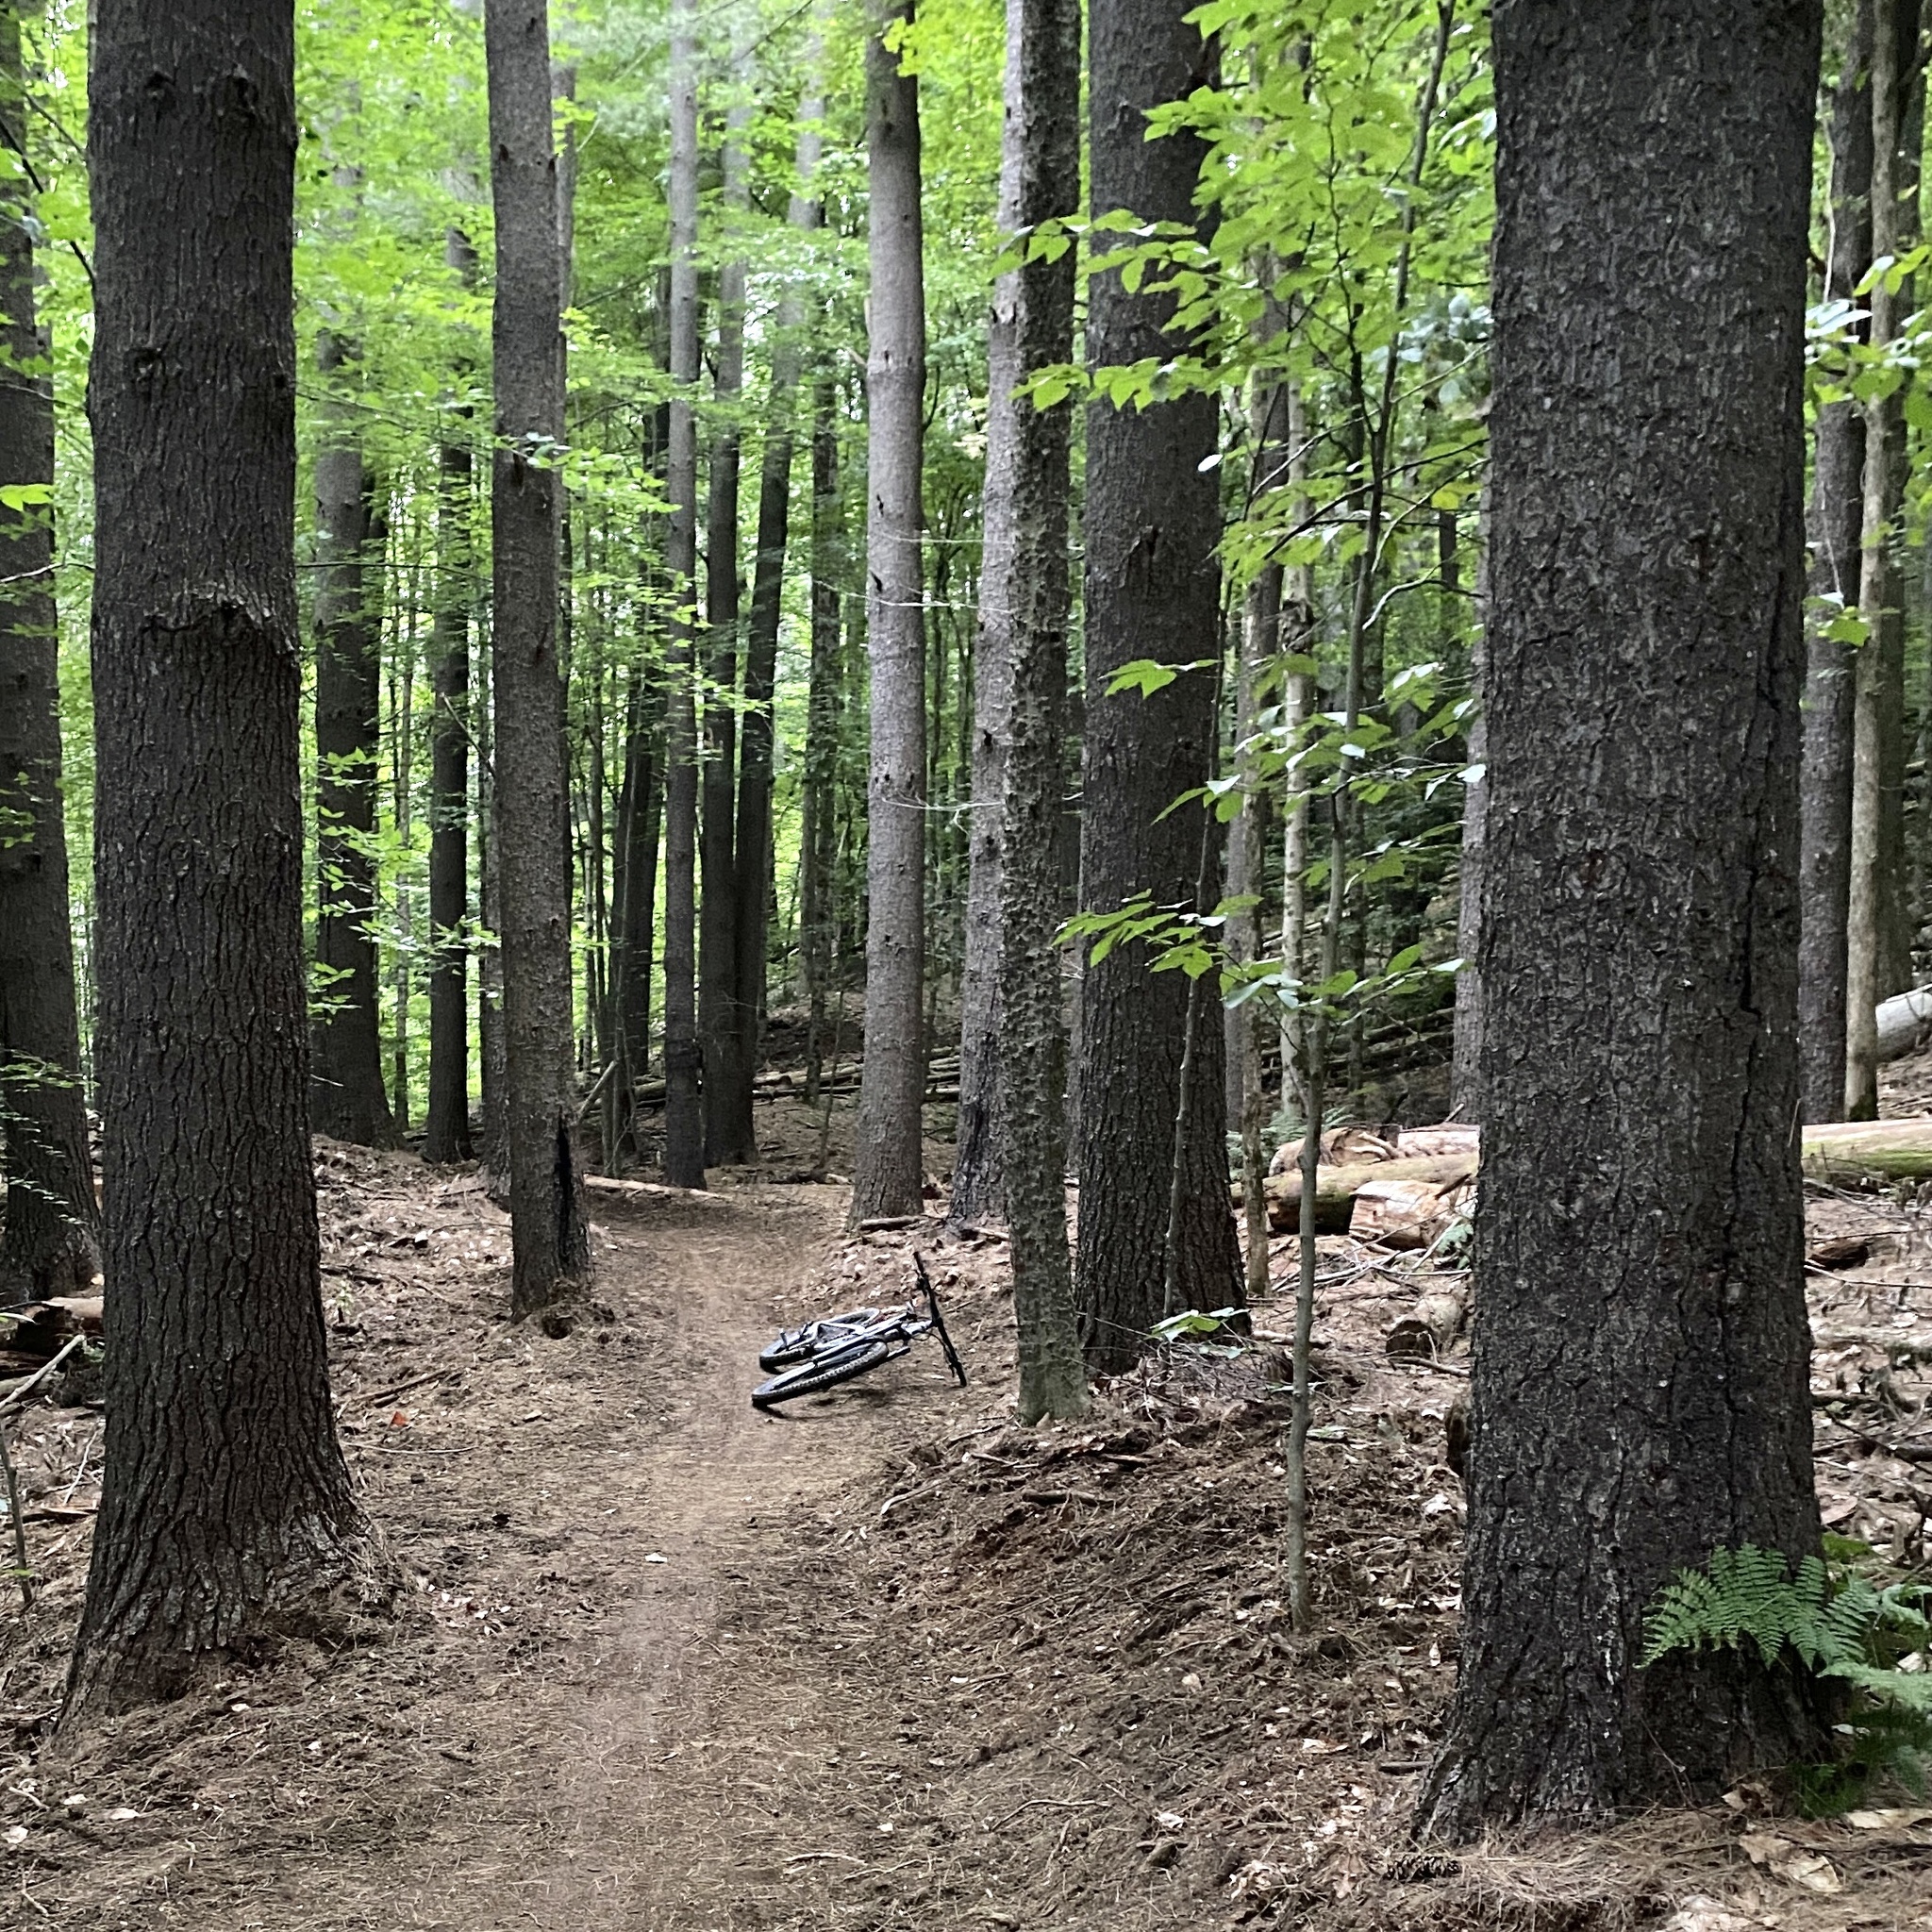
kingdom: Plantae
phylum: Tracheophyta
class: Pinopsida
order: Pinales
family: Pinaceae
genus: Pinus
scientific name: Pinus strobus
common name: Weymouth pine
